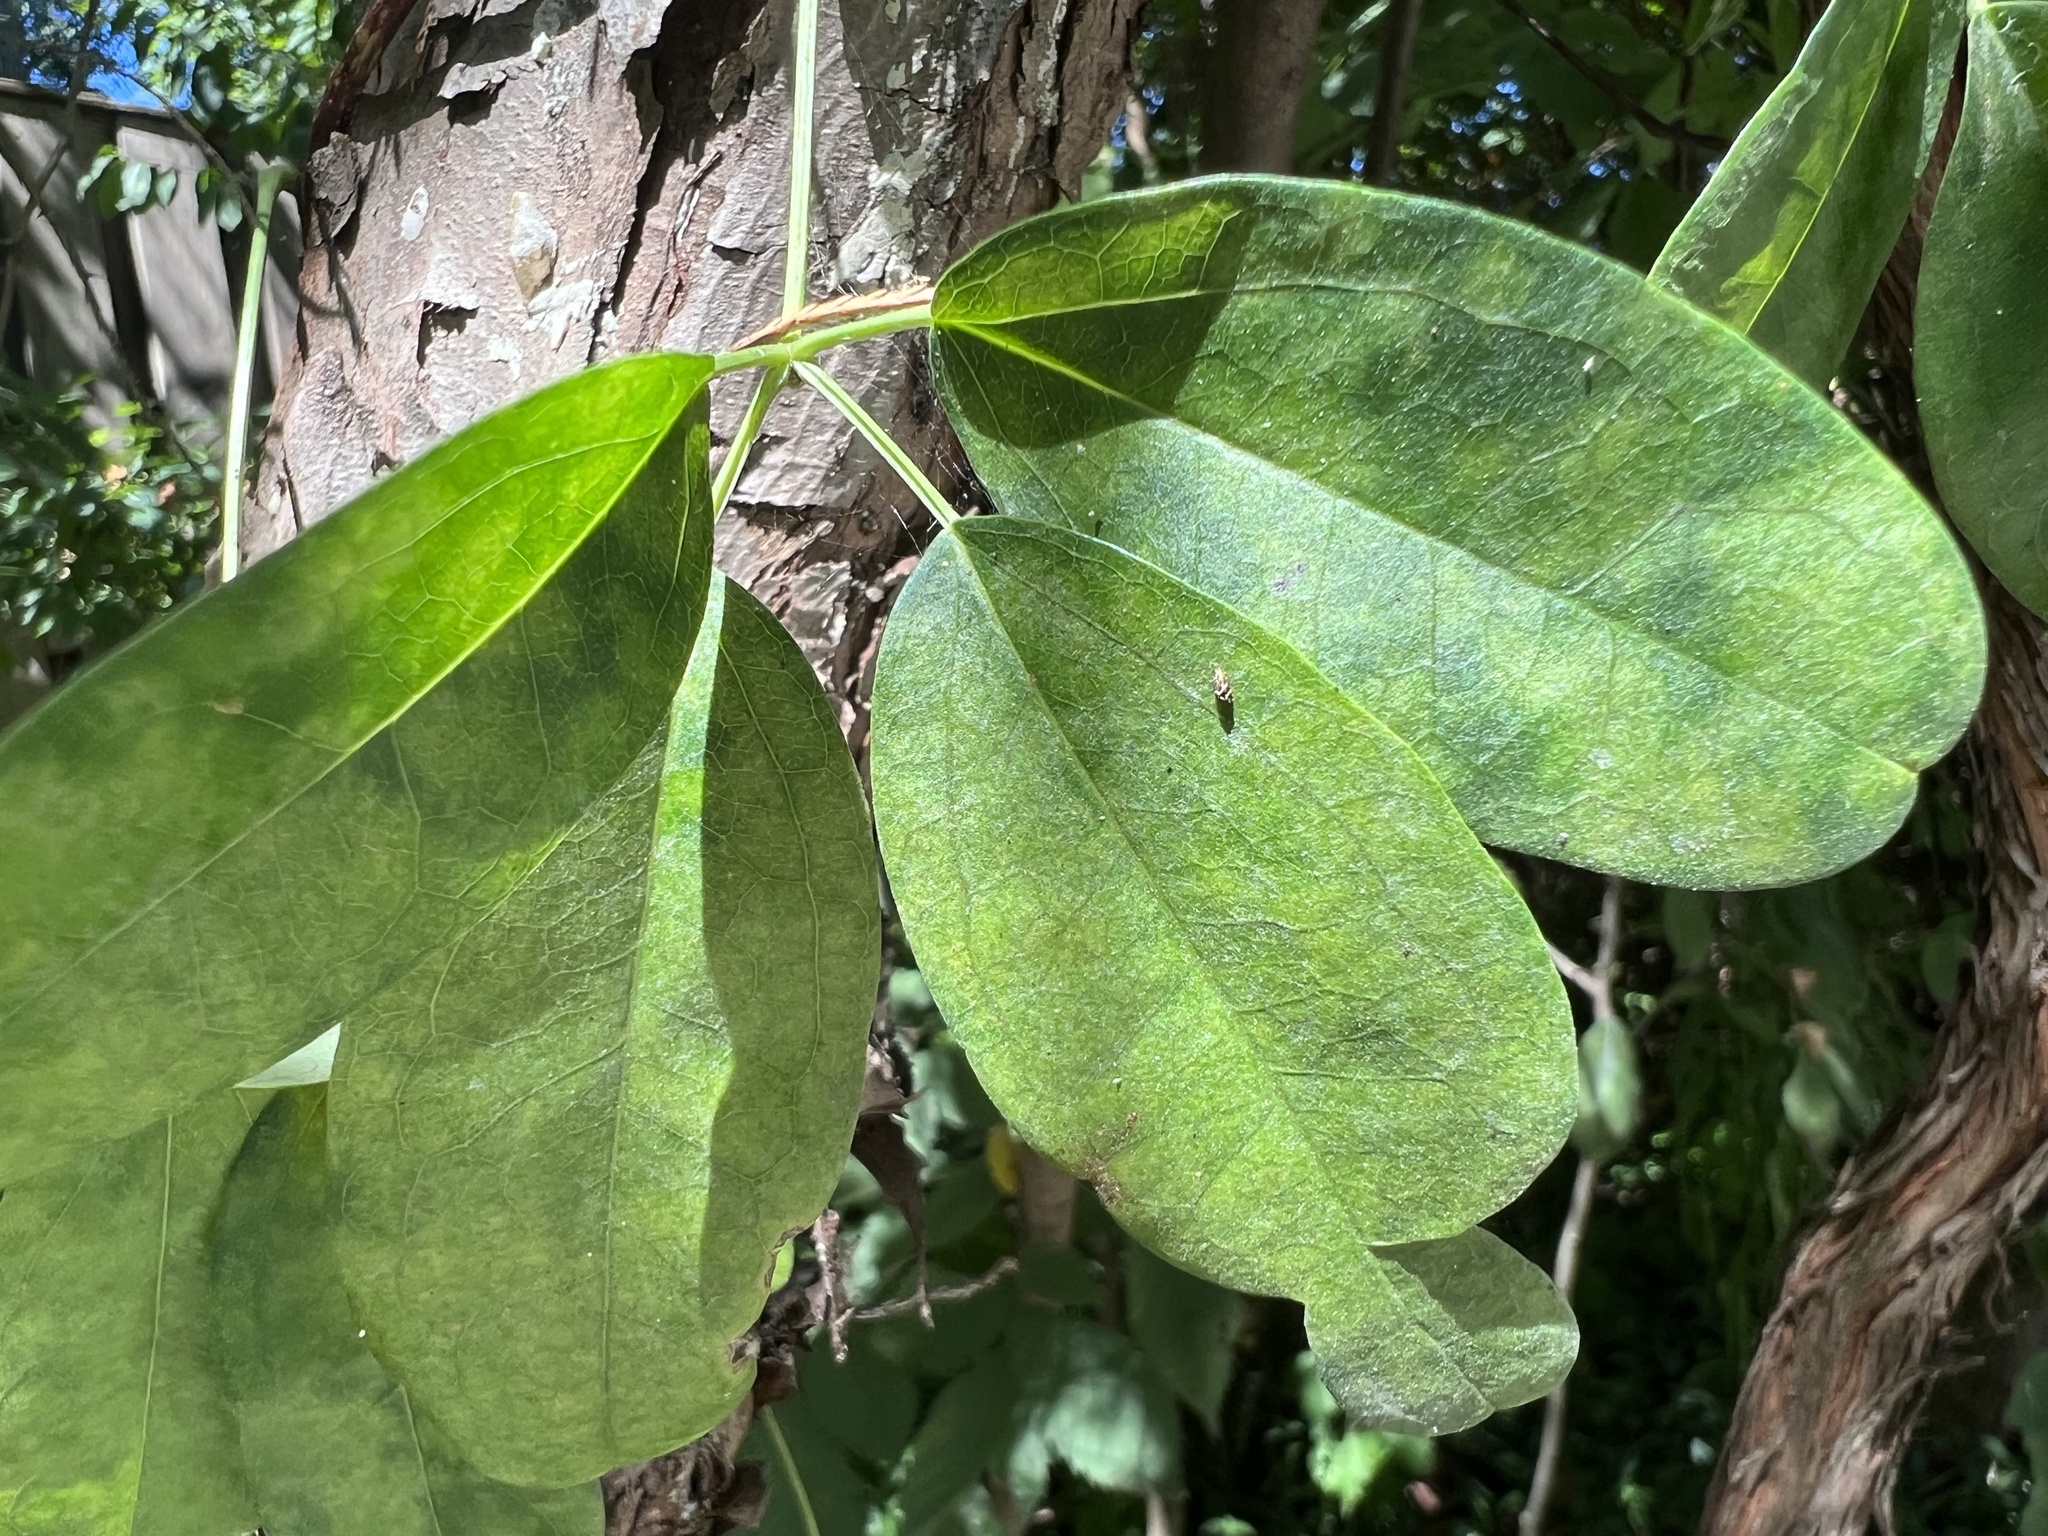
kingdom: Plantae
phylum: Tracheophyta
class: Magnoliopsida
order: Ranunculales
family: Lardizabalaceae
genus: Akebia
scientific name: Akebia quinata
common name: Five-leaf akebia
